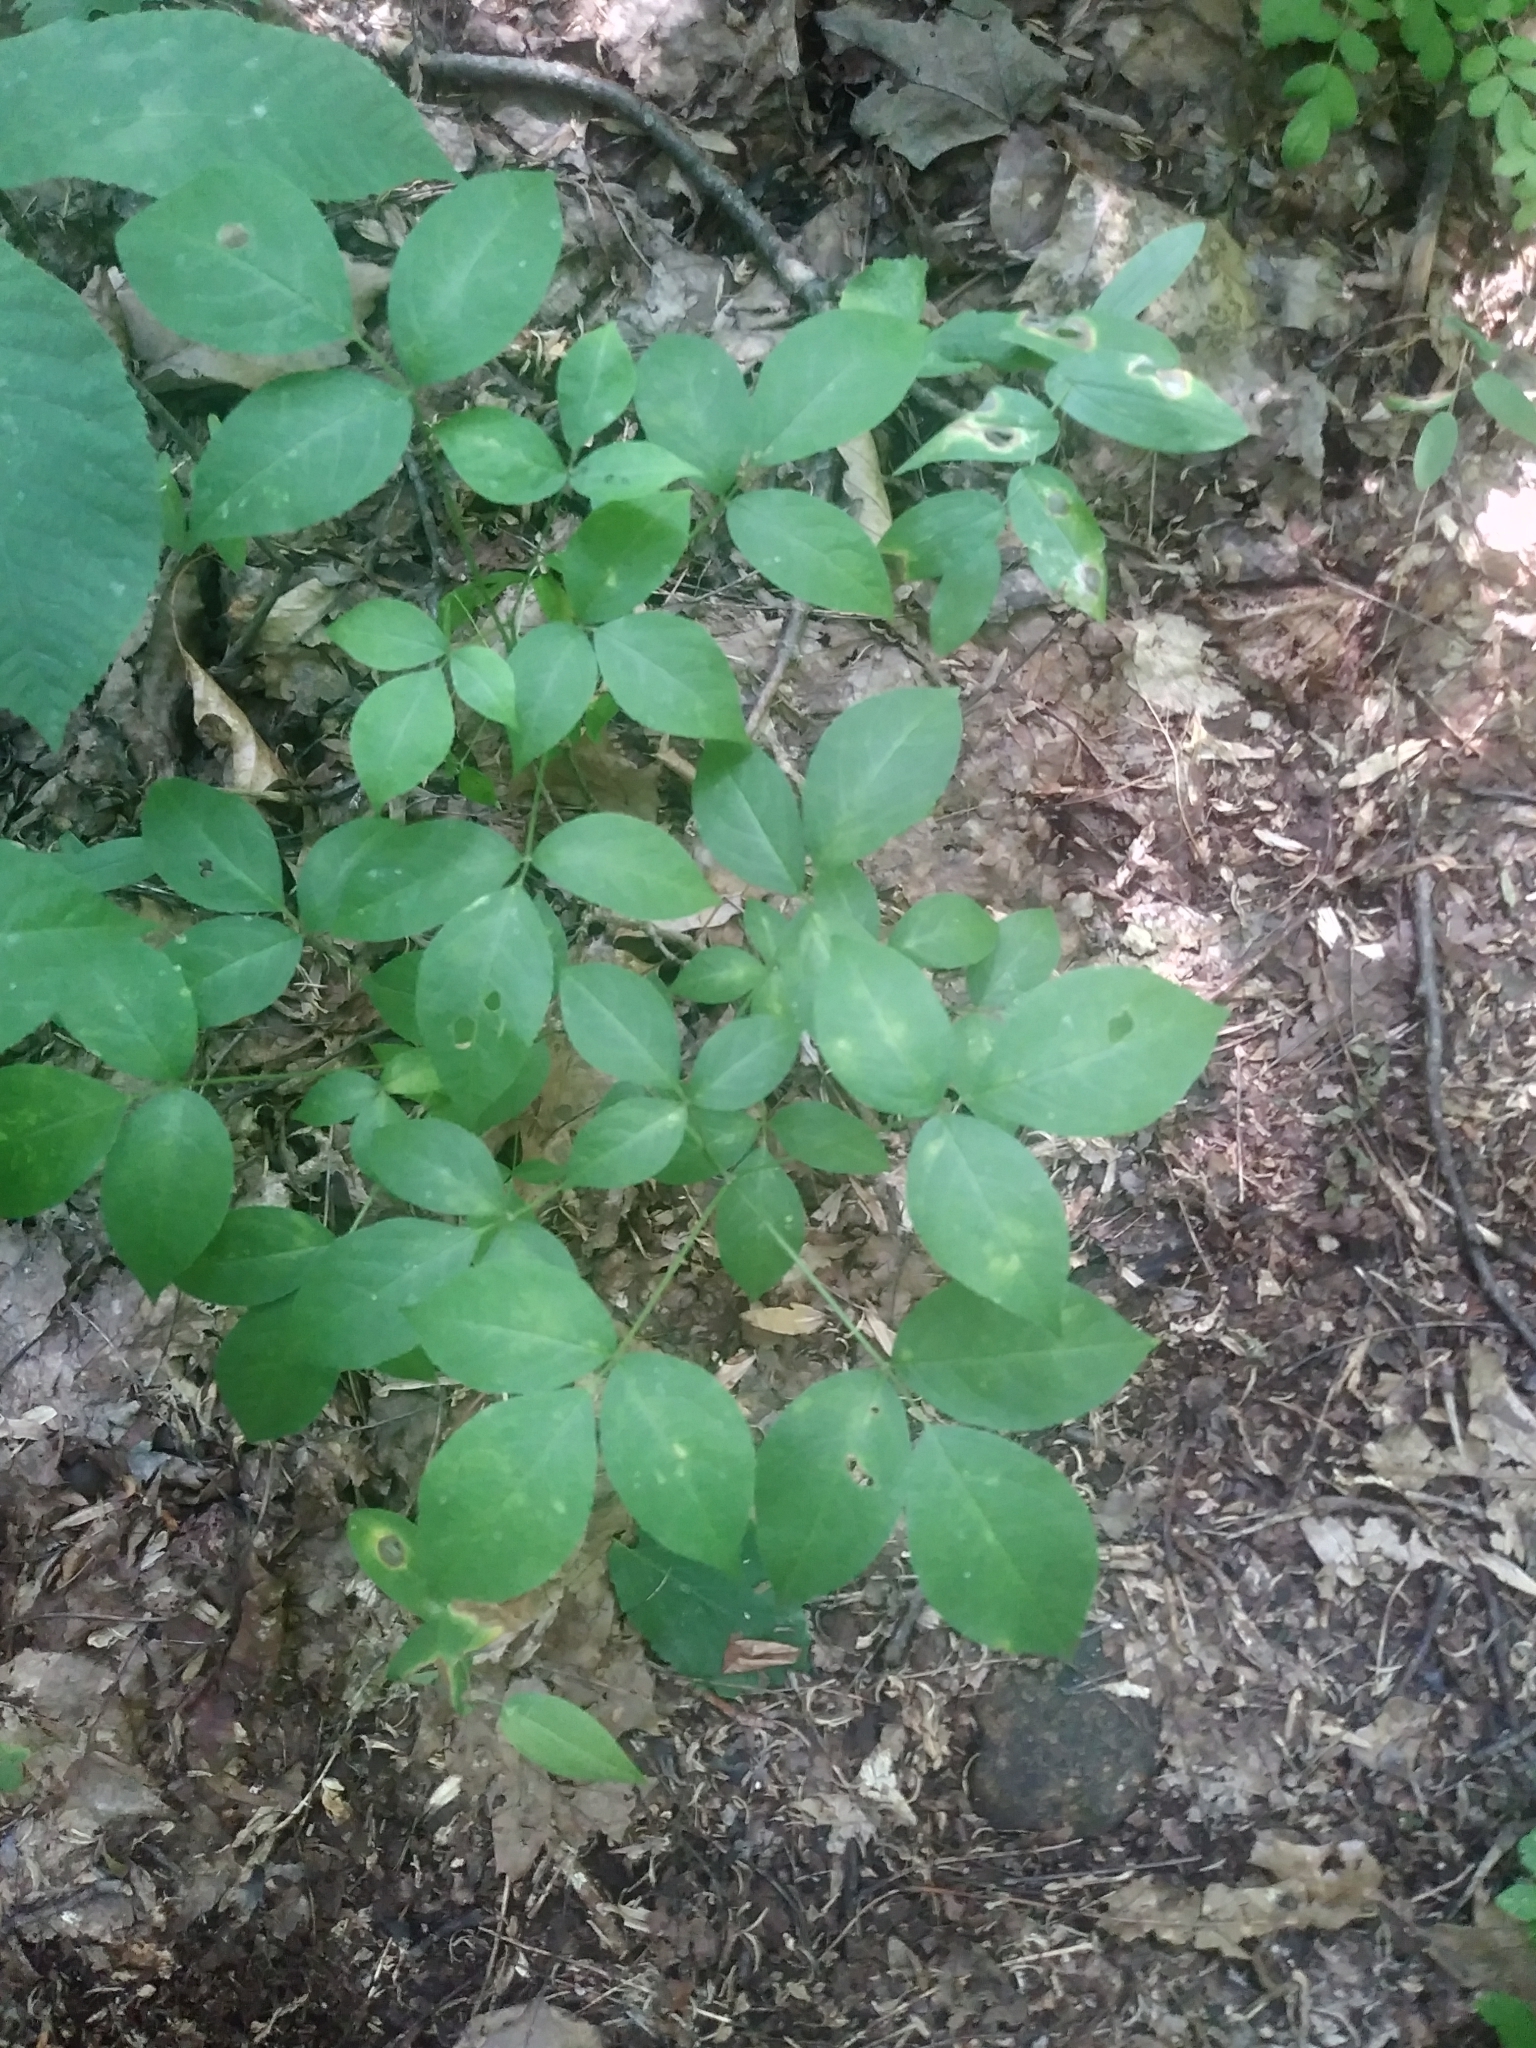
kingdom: Plantae
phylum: Tracheophyta
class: Magnoliopsida
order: Crossosomatales
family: Staphyleaceae
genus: Staphylea
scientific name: Staphylea trifolia
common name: American bladdernut
